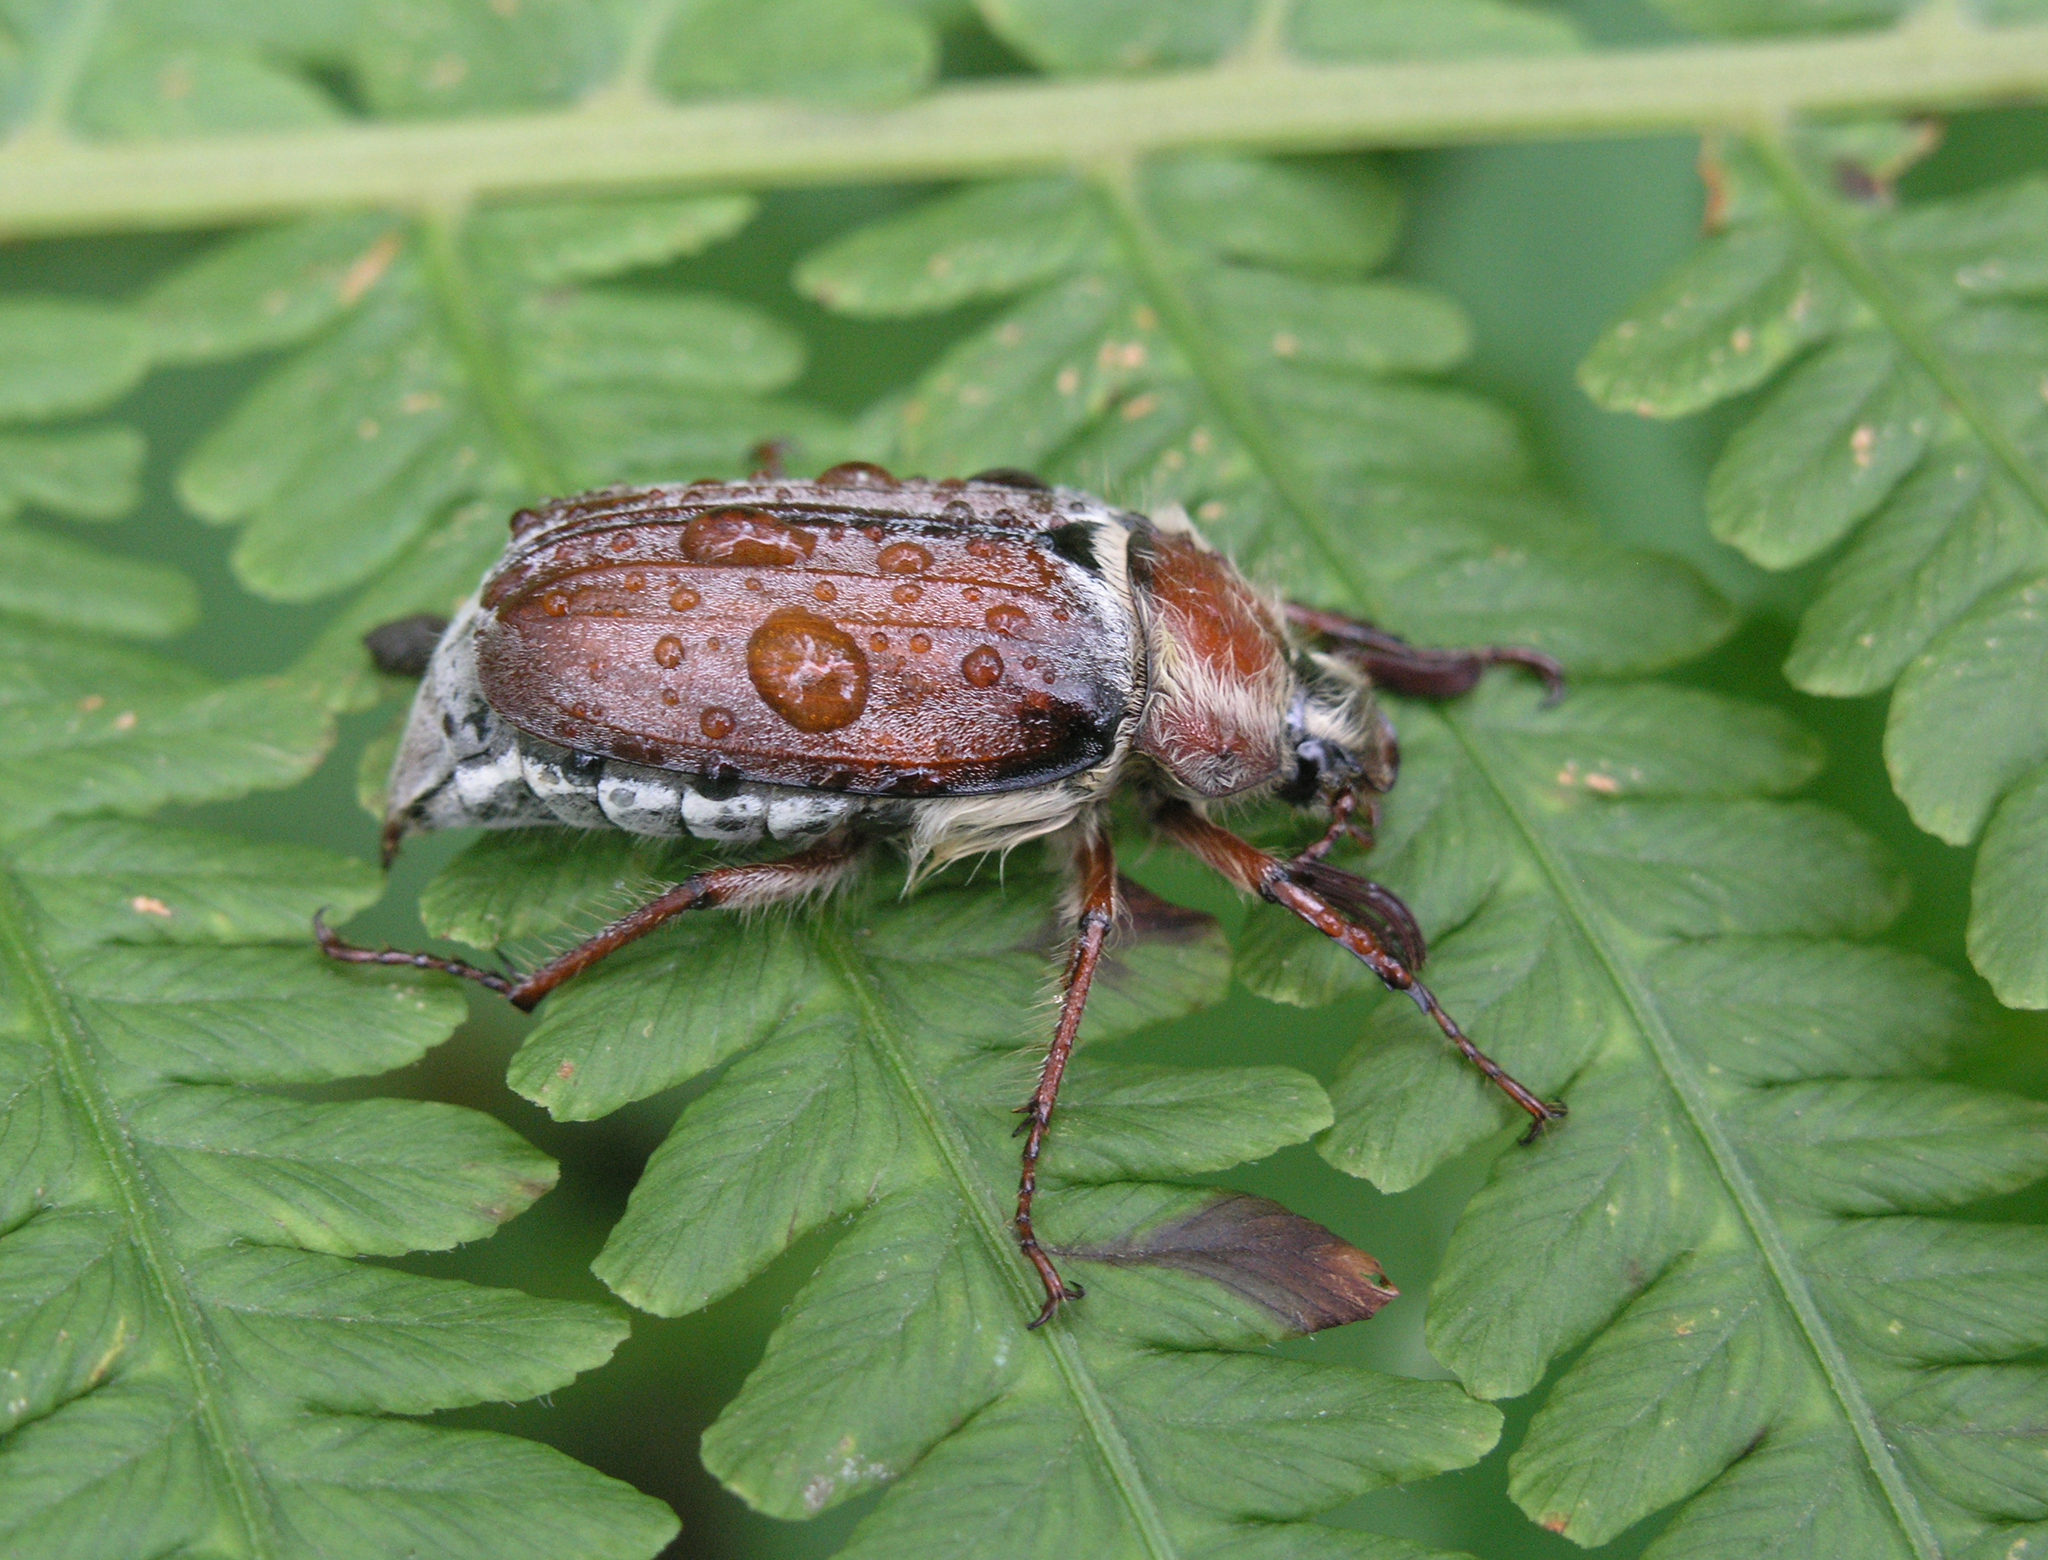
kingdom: Animalia
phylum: Arthropoda
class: Insecta
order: Coleoptera
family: Scarabaeidae
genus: Melolontha
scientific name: Melolontha hippocastani
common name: Chestnut cockchafer
